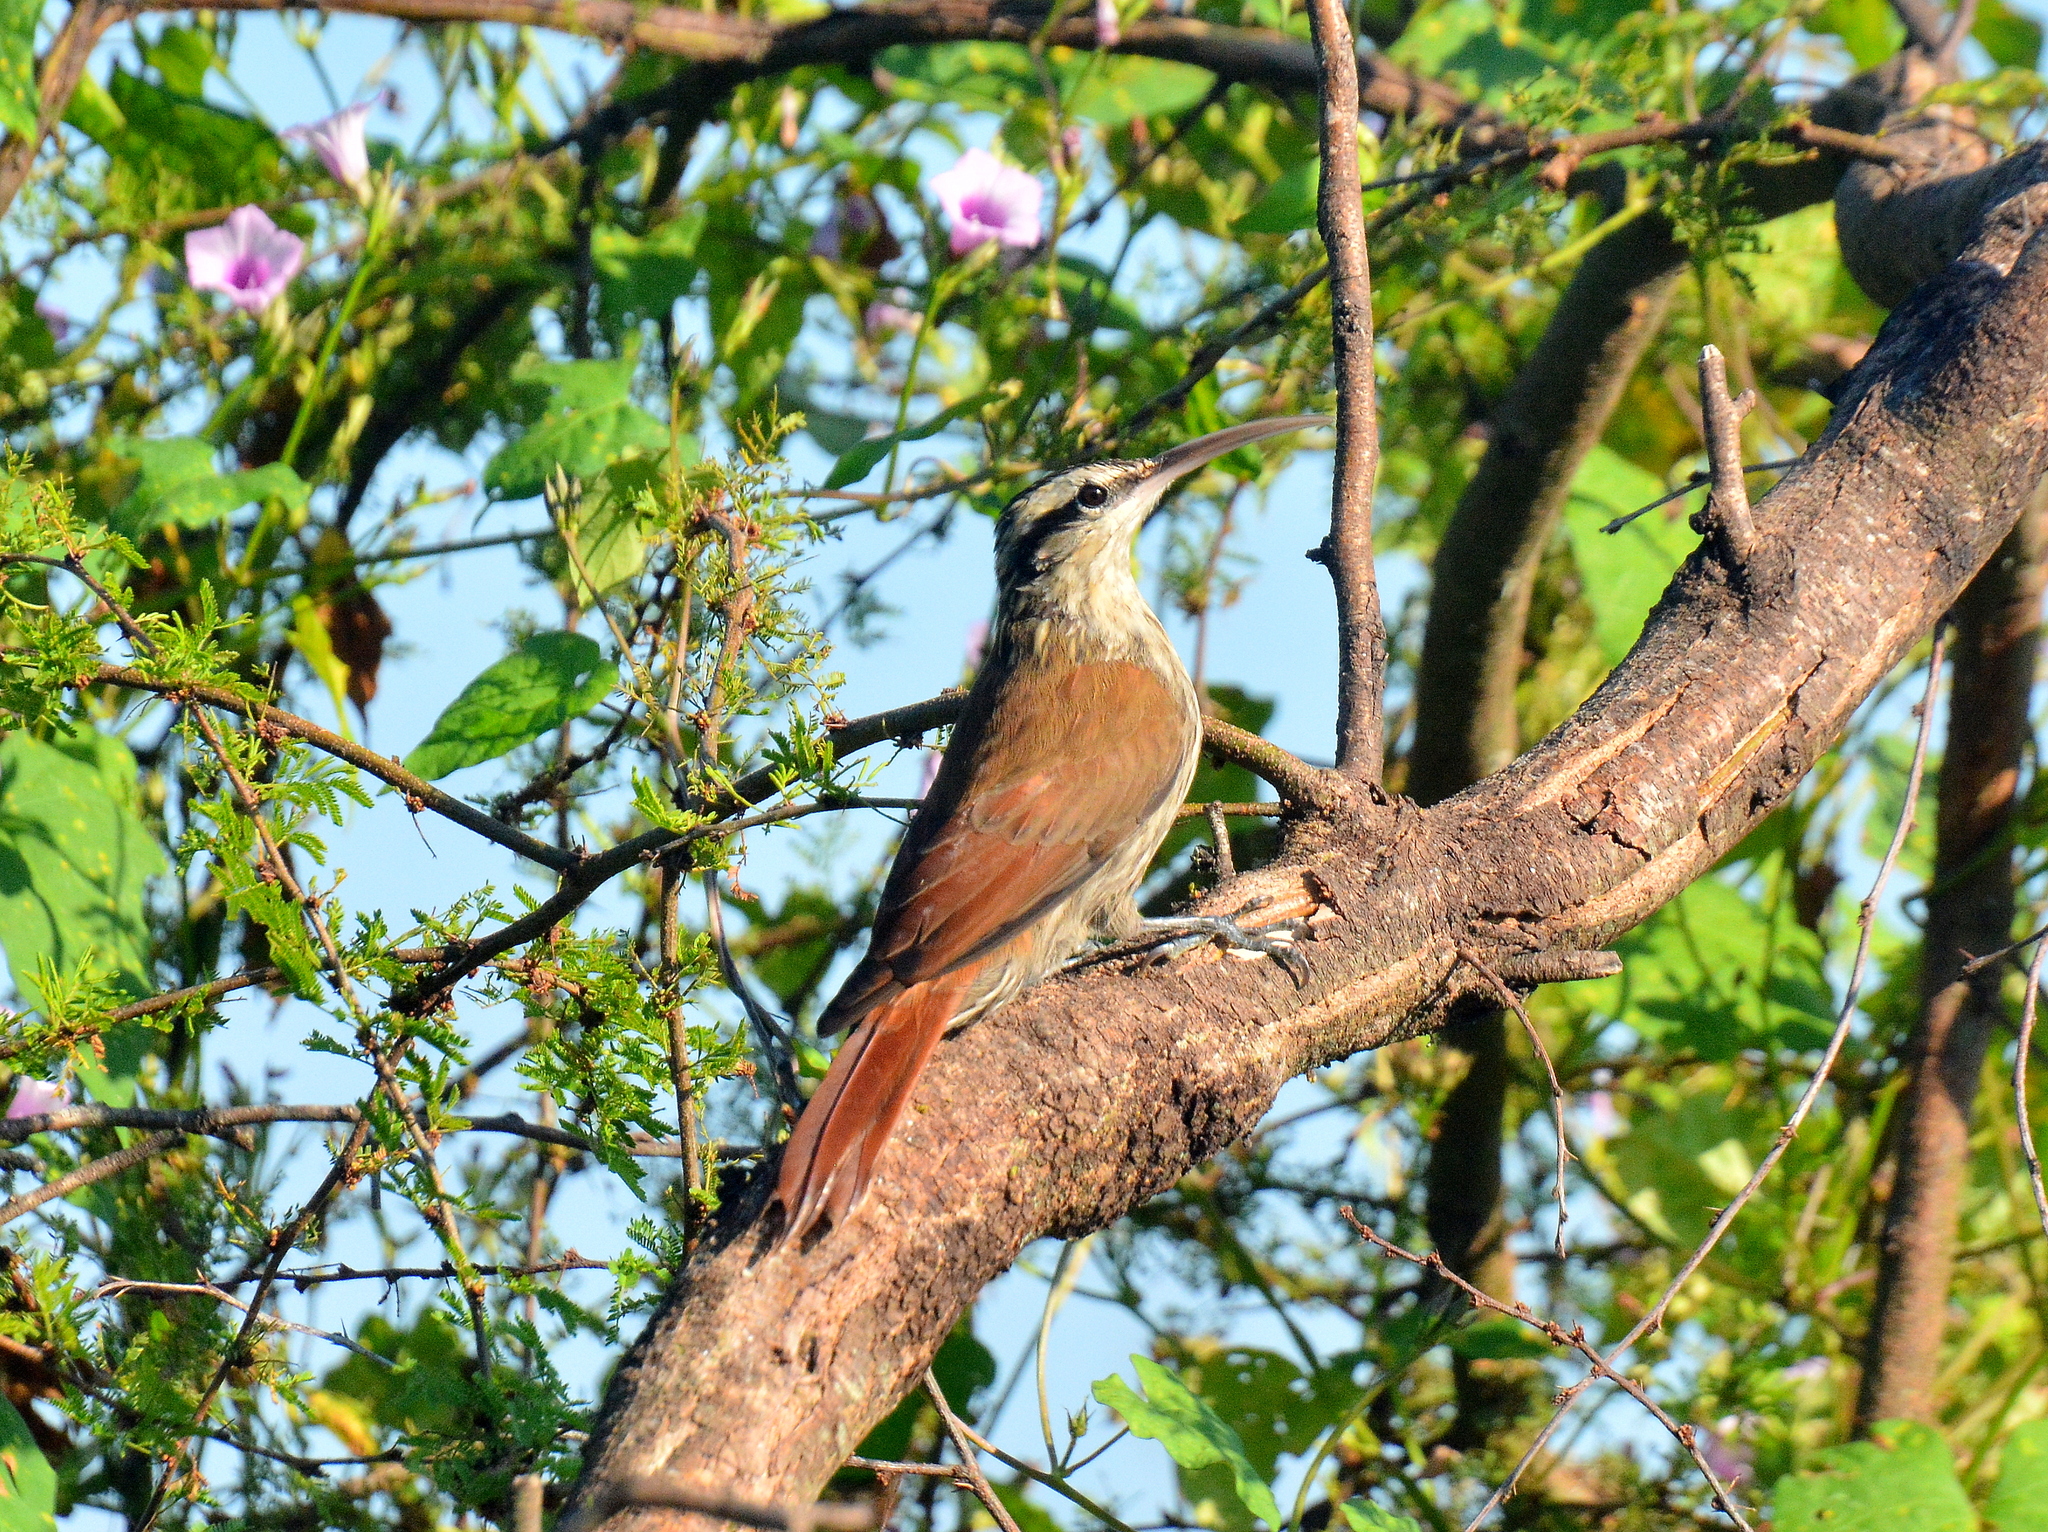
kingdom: Animalia
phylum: Chordata
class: Aves
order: Passeriformes
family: Furnariidae
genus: Lepidocolaptes
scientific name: Lepidocolaptes angustirostris
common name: Narrow-billed woodcreeper
